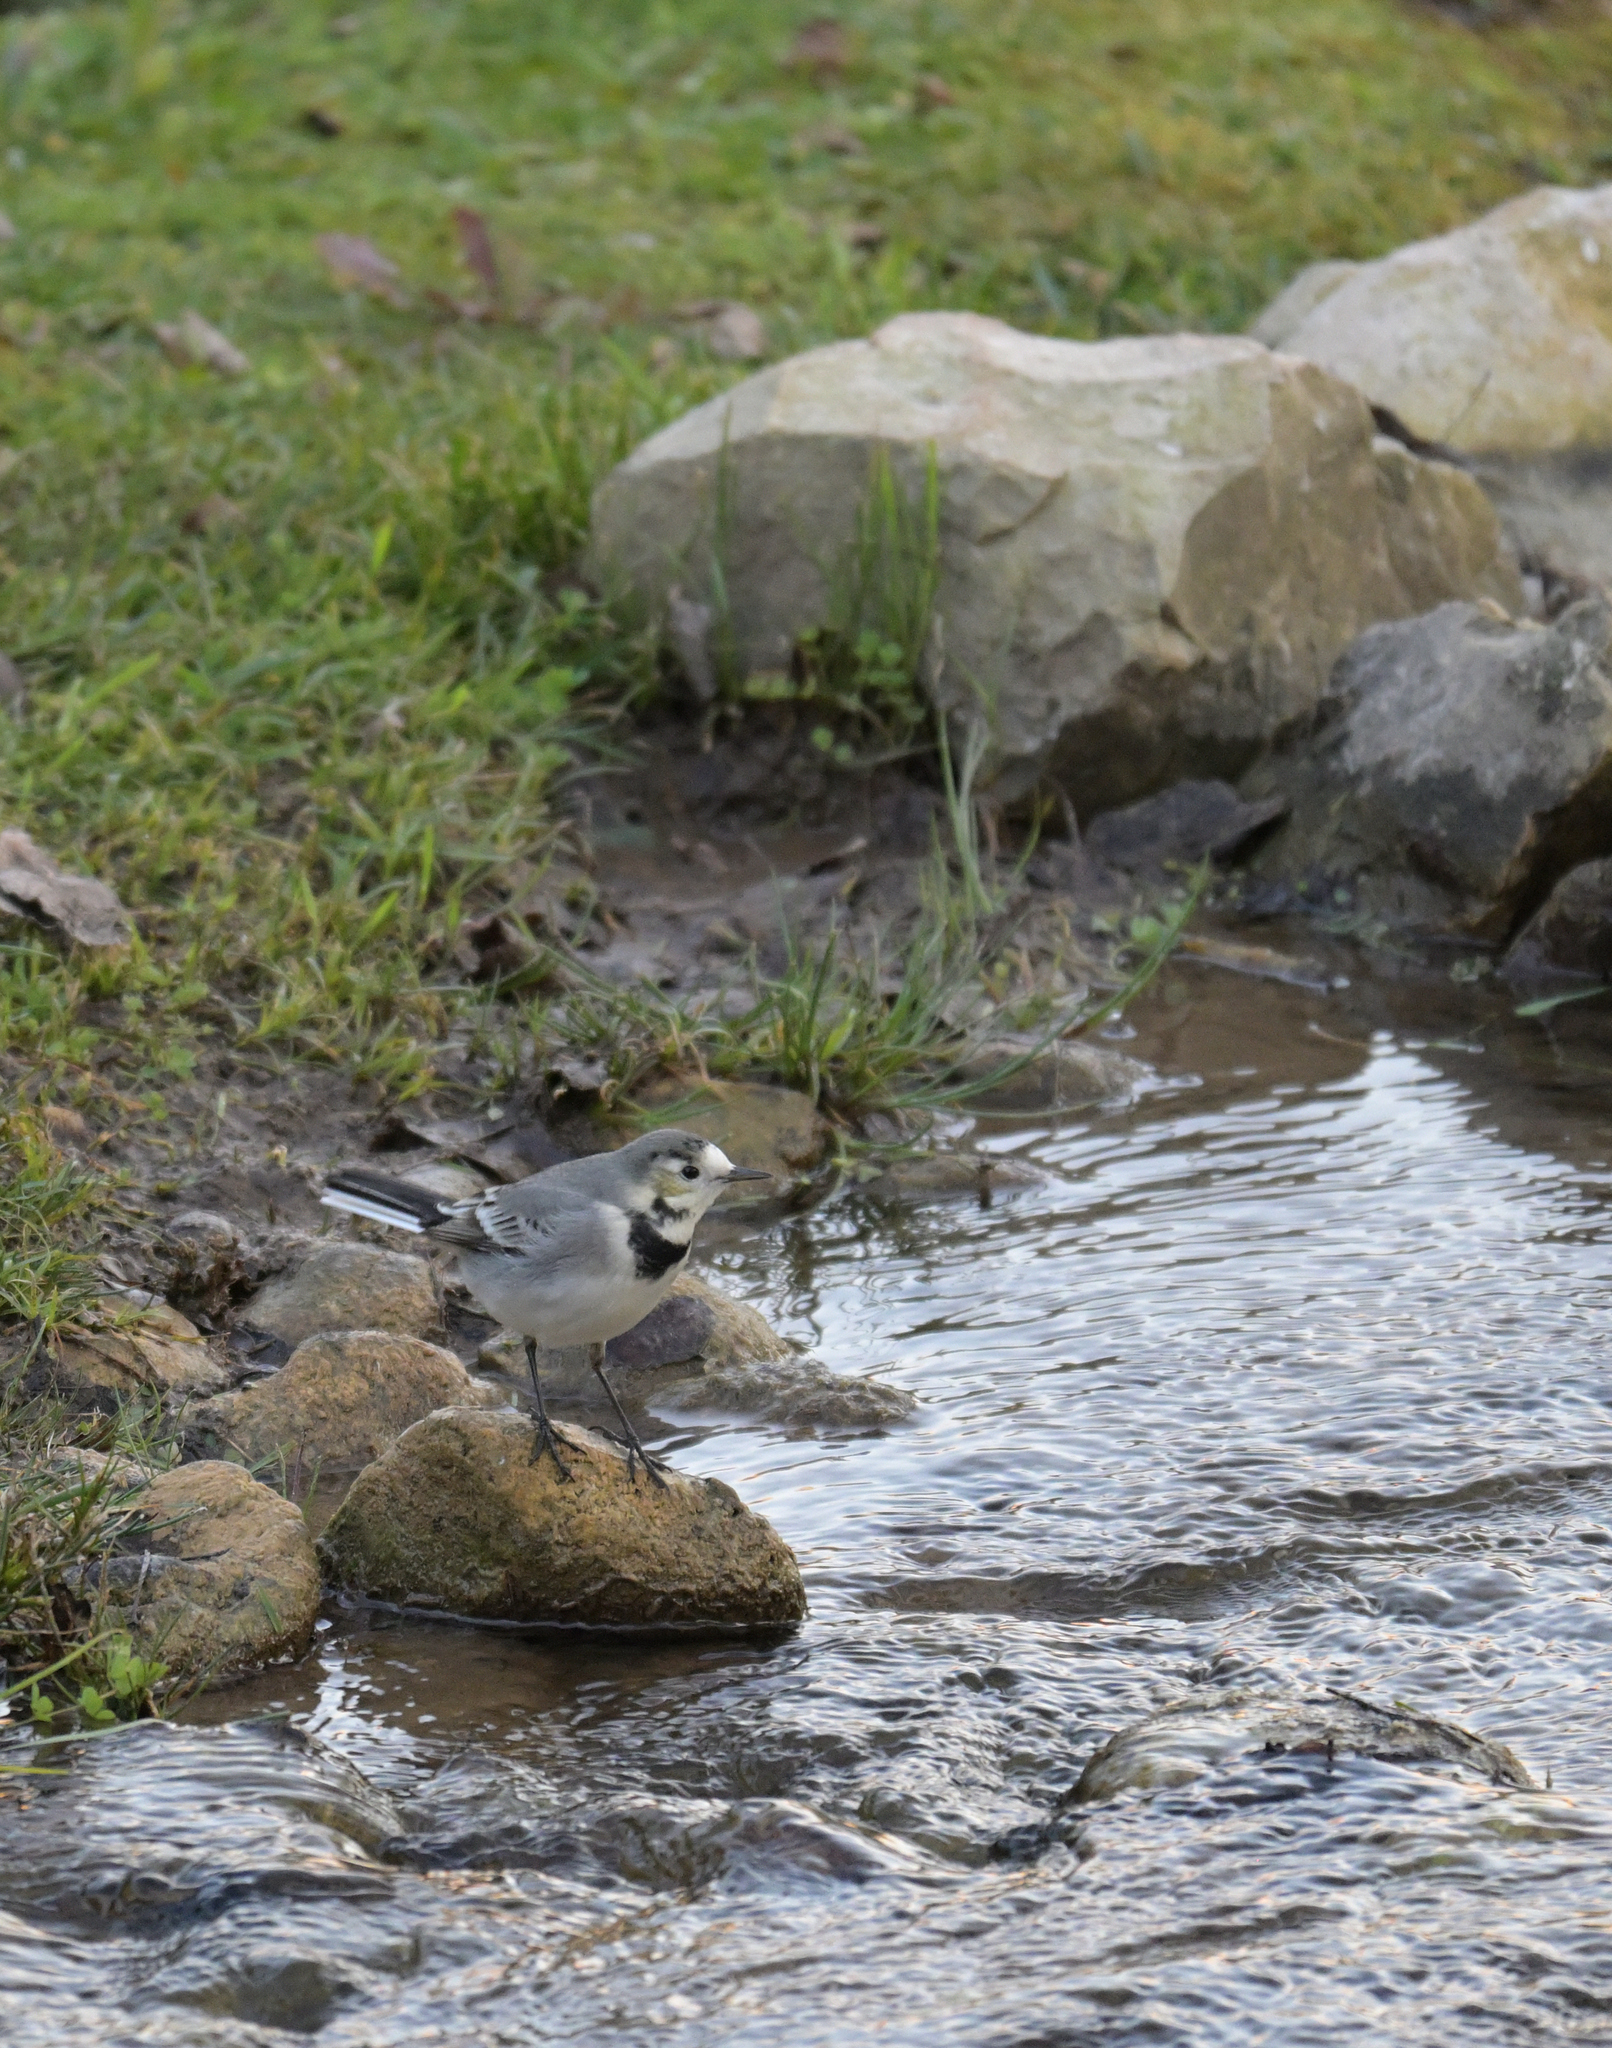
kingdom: Animalia
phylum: Chordata
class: Aves
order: Passeriformes
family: Motacillidae
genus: Motacilla
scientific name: Motacilla alba
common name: White wagtail
